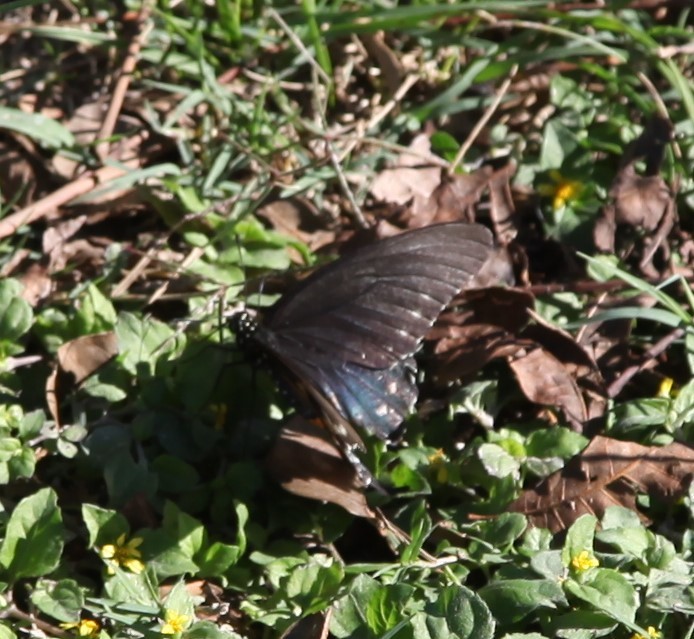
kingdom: Animalia
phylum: Arthropoda
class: Insecta
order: Lepidoptera
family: Papilionidae
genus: Battus
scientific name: Battus philenor
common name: Pipevine swallowtail
